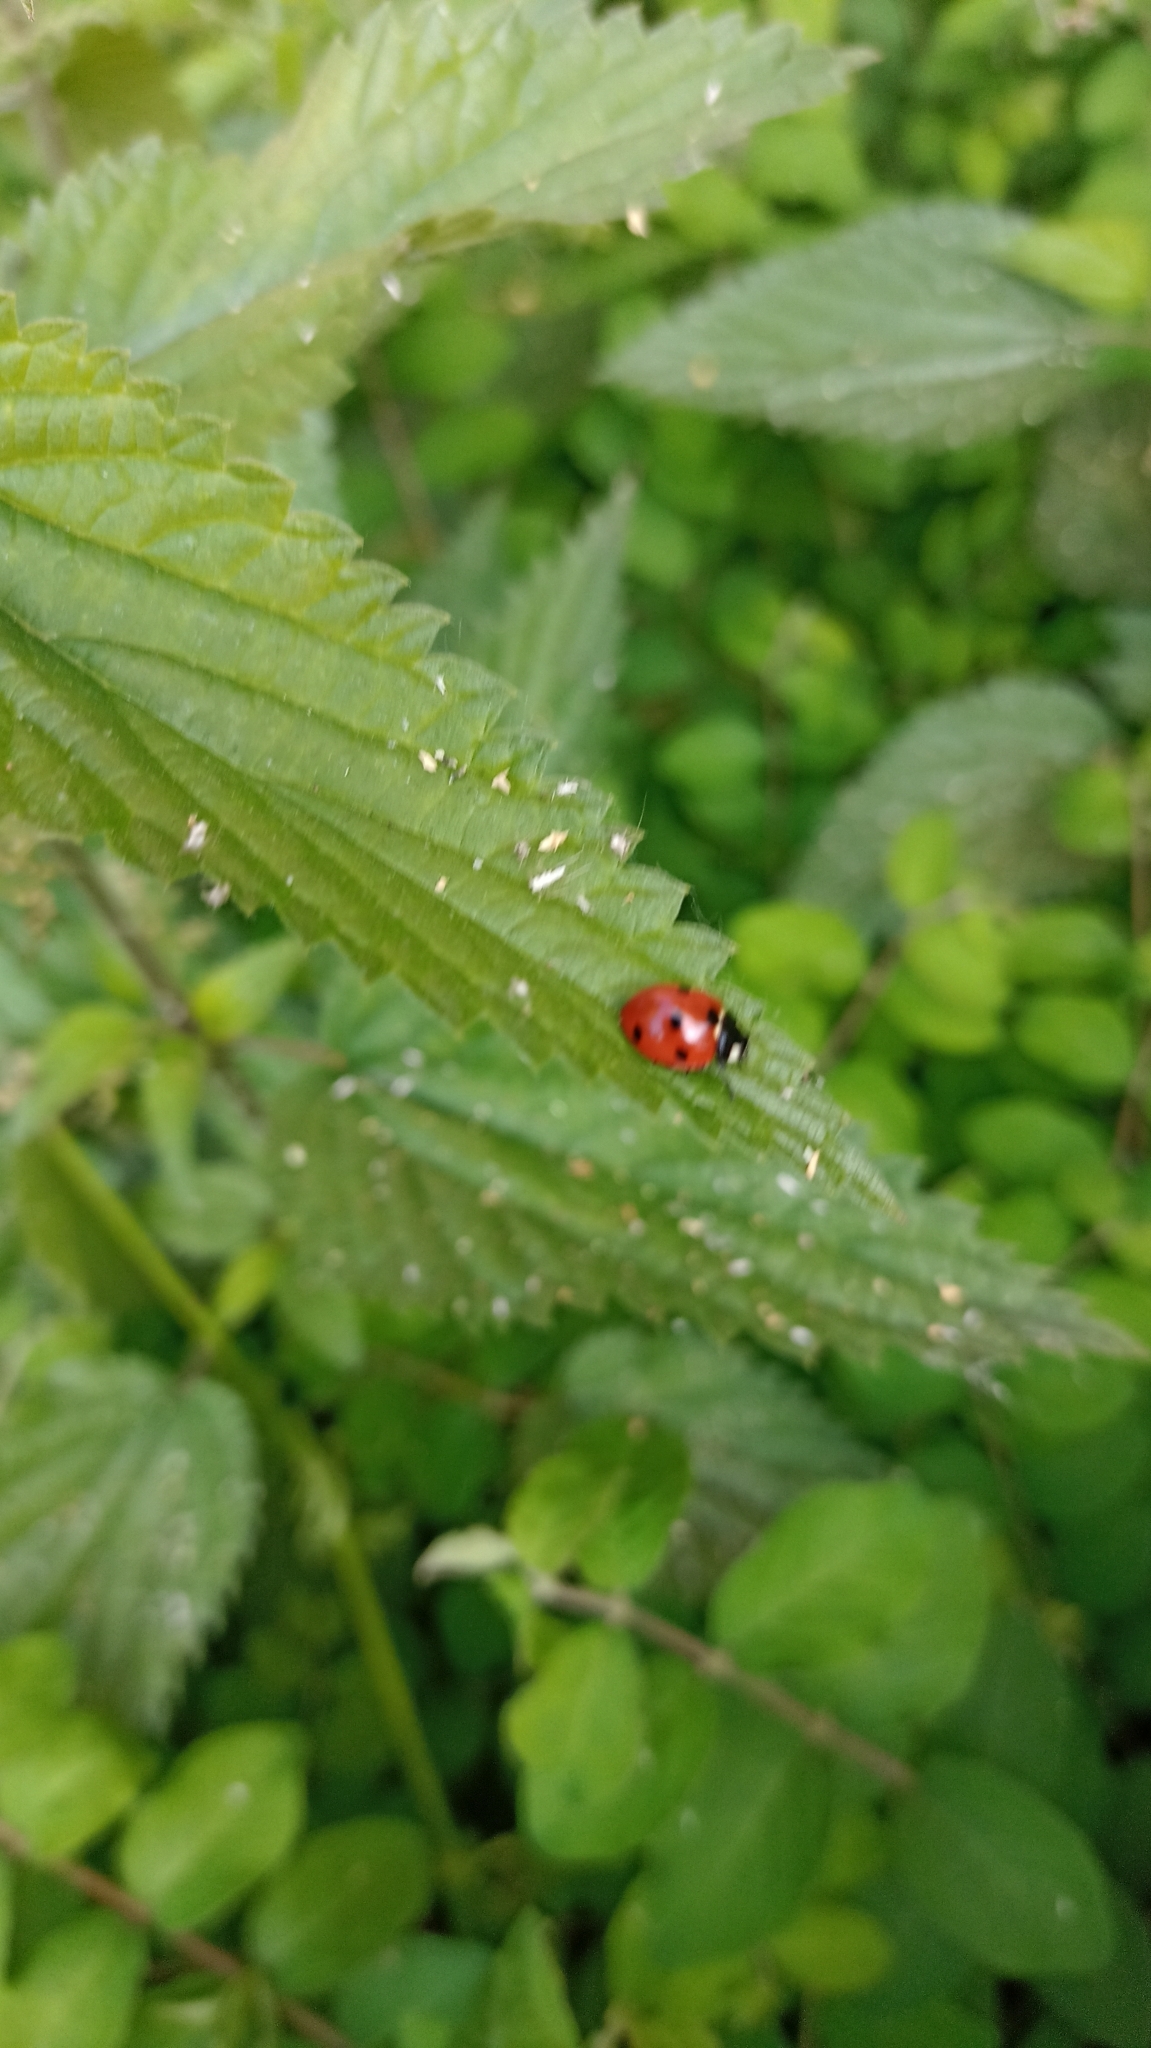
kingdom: Animalia
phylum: Arthropoda
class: Insecta
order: Coleoptera
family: Coccinellidae
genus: Coccinella
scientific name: Coccinella septempunctata
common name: Sevenspotted lady beetle
